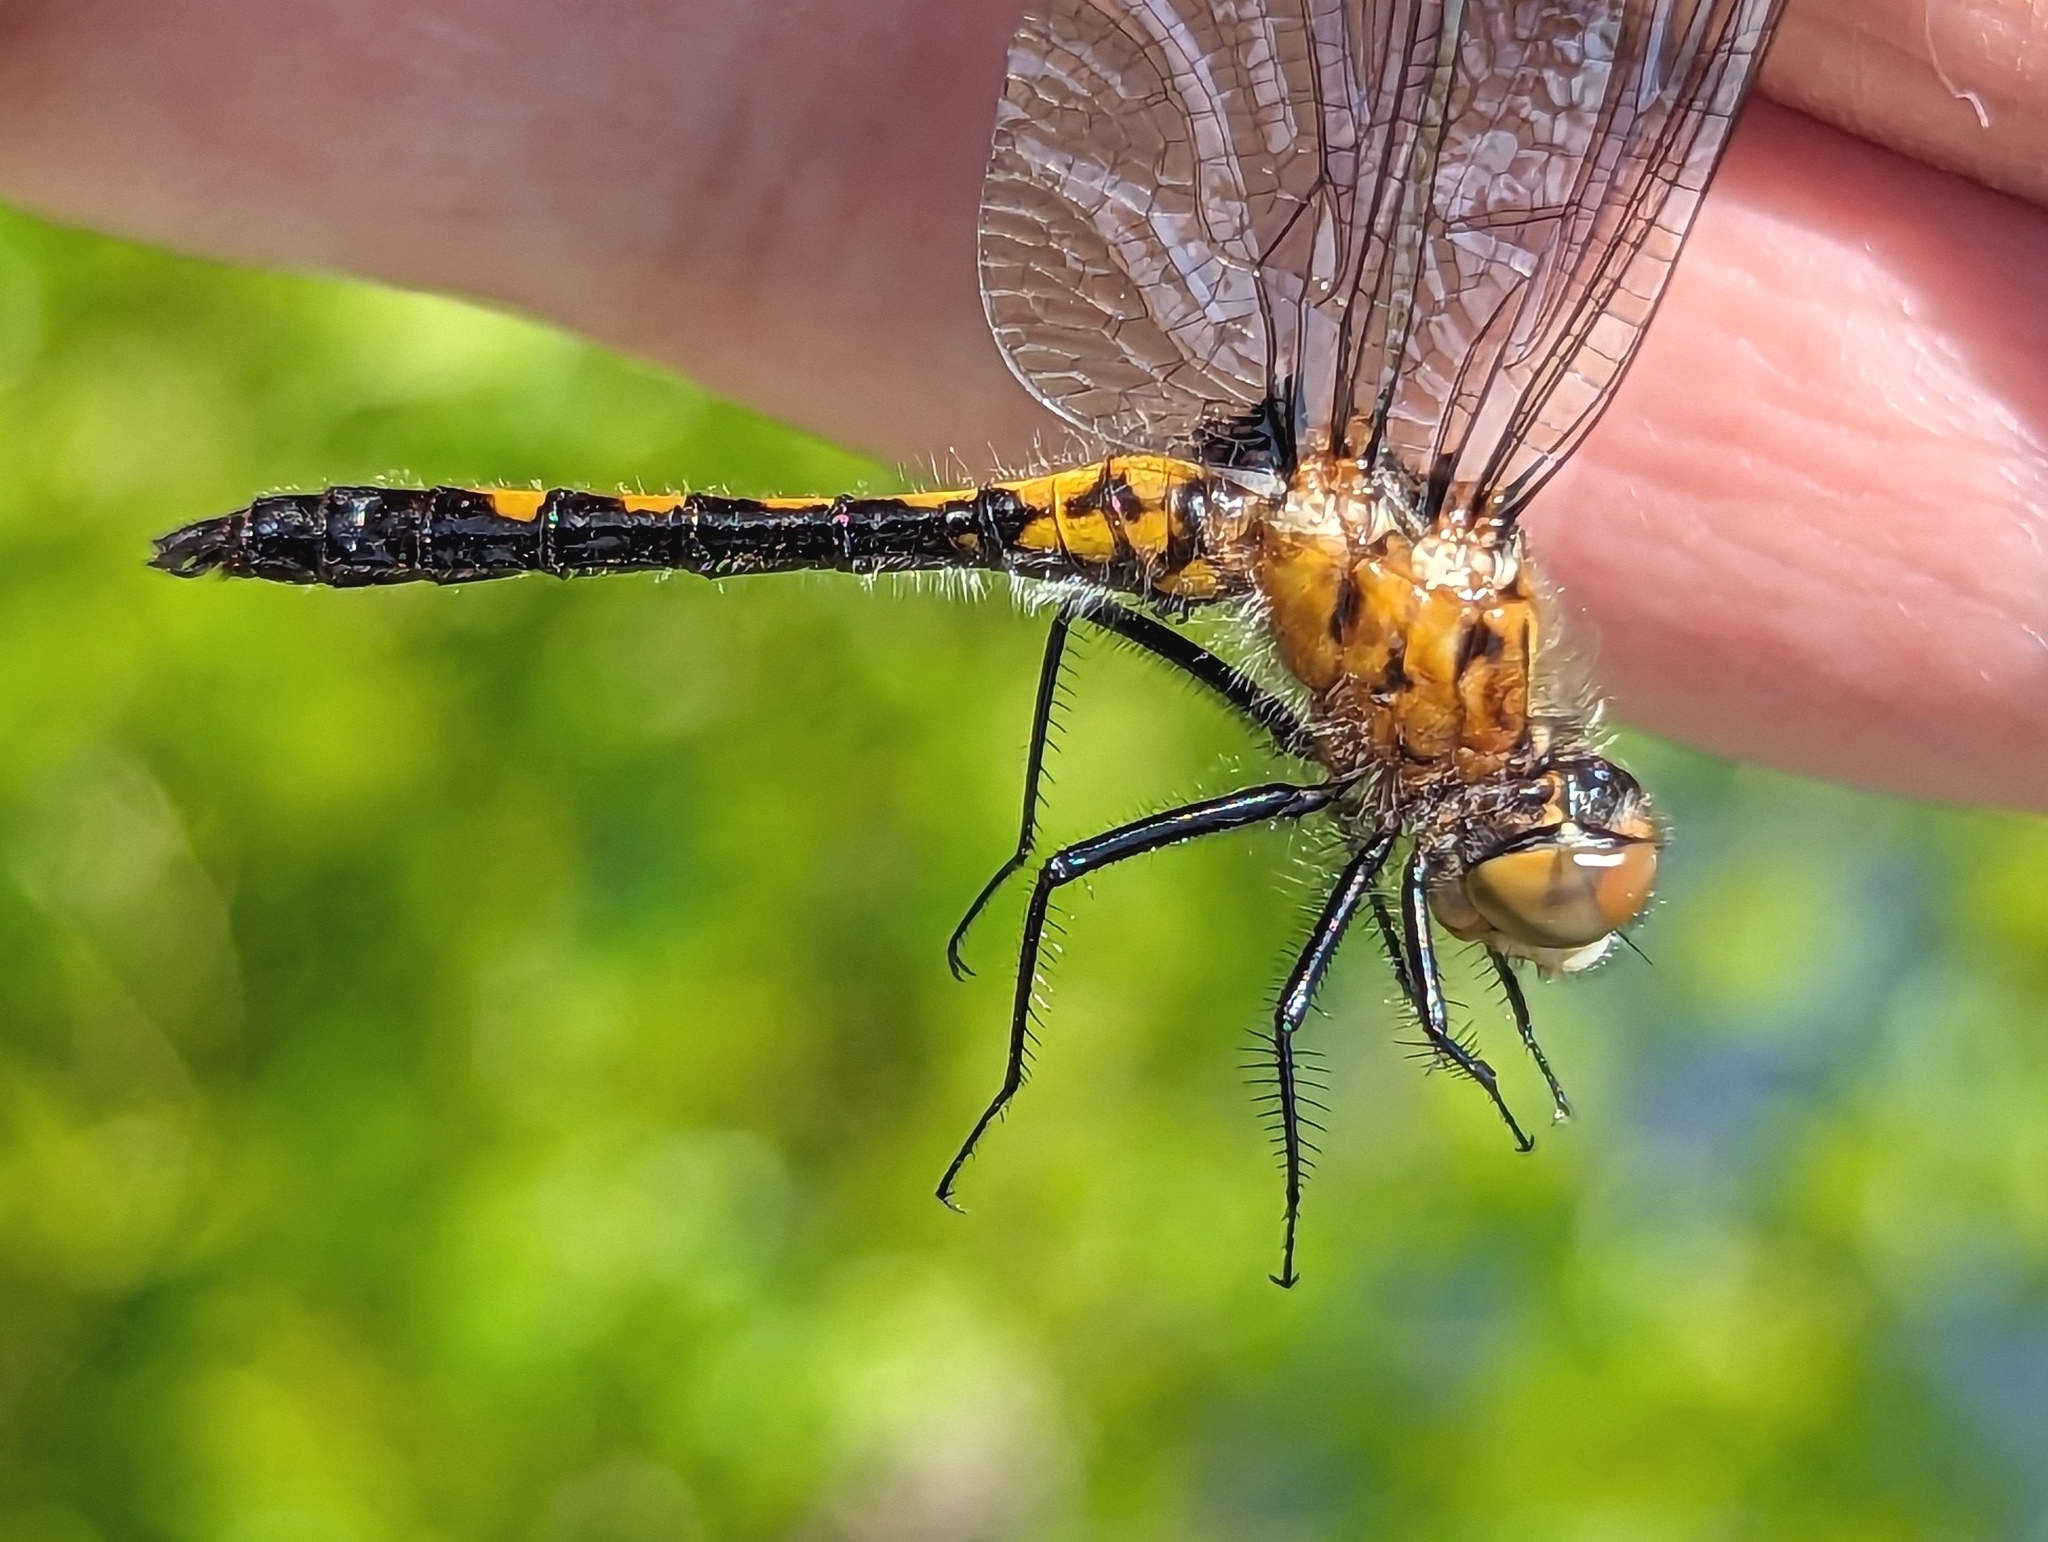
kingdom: Animalia
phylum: Arthropoda
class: Insecta
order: Odonata
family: Libellulidae
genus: Leucorrhinia
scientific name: Leucorrhinia intacta
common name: Dot-tailed whiteface
